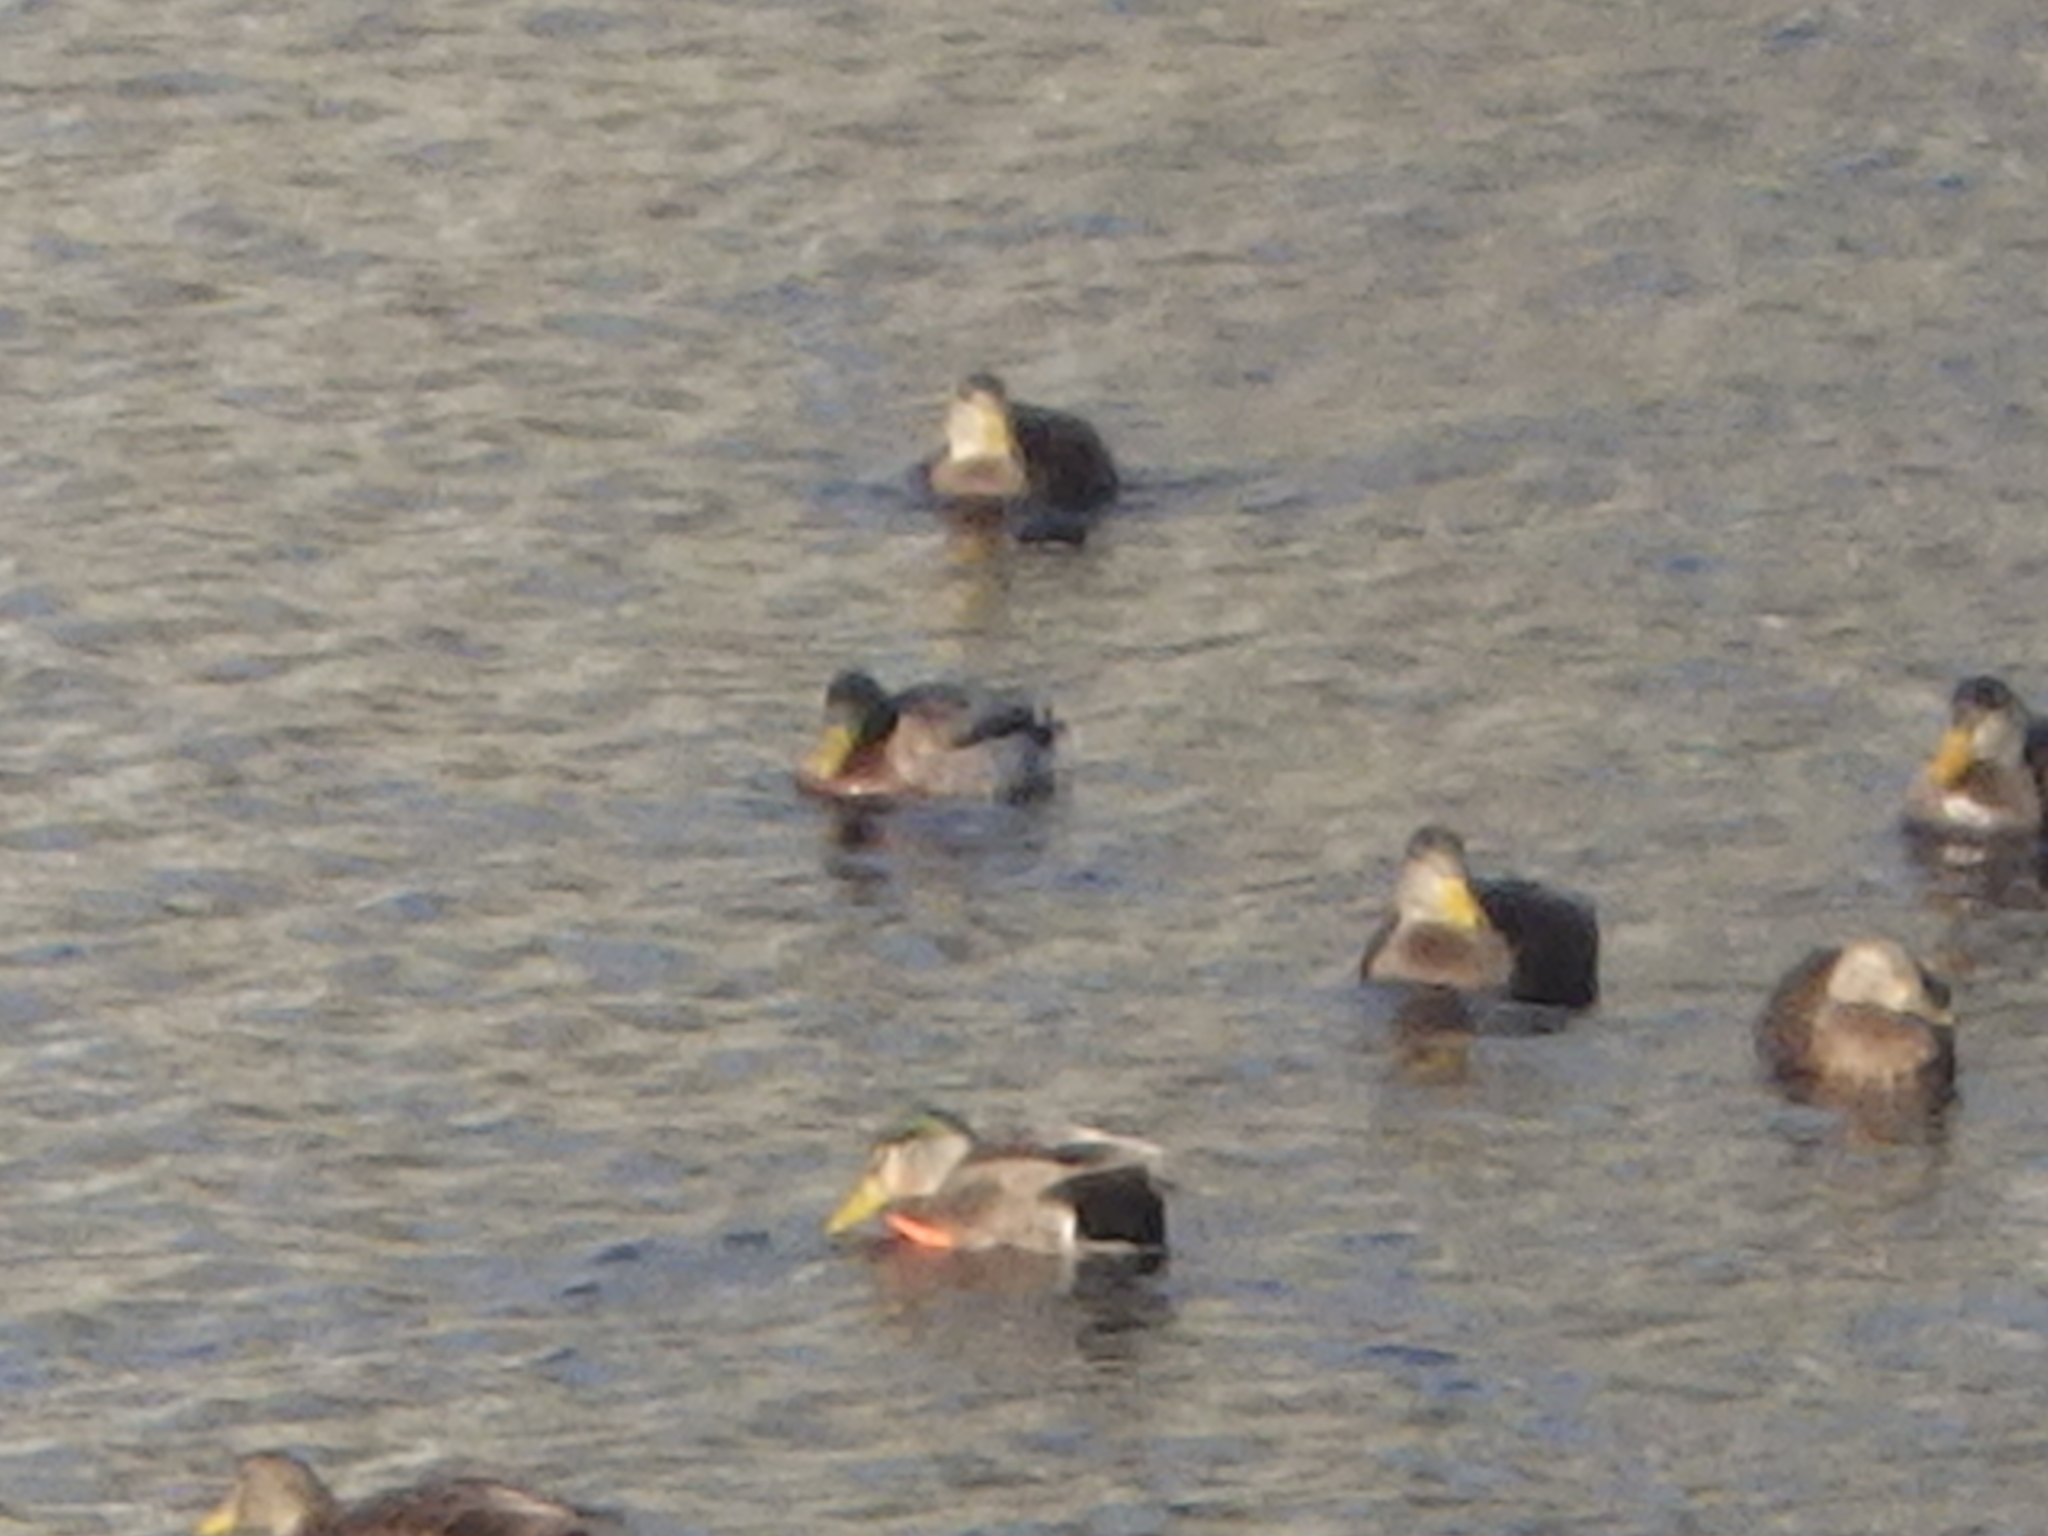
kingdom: Animalia
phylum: Chordata
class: Aves
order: Anseriformes
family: Anatidae
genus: Anas
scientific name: Anas
